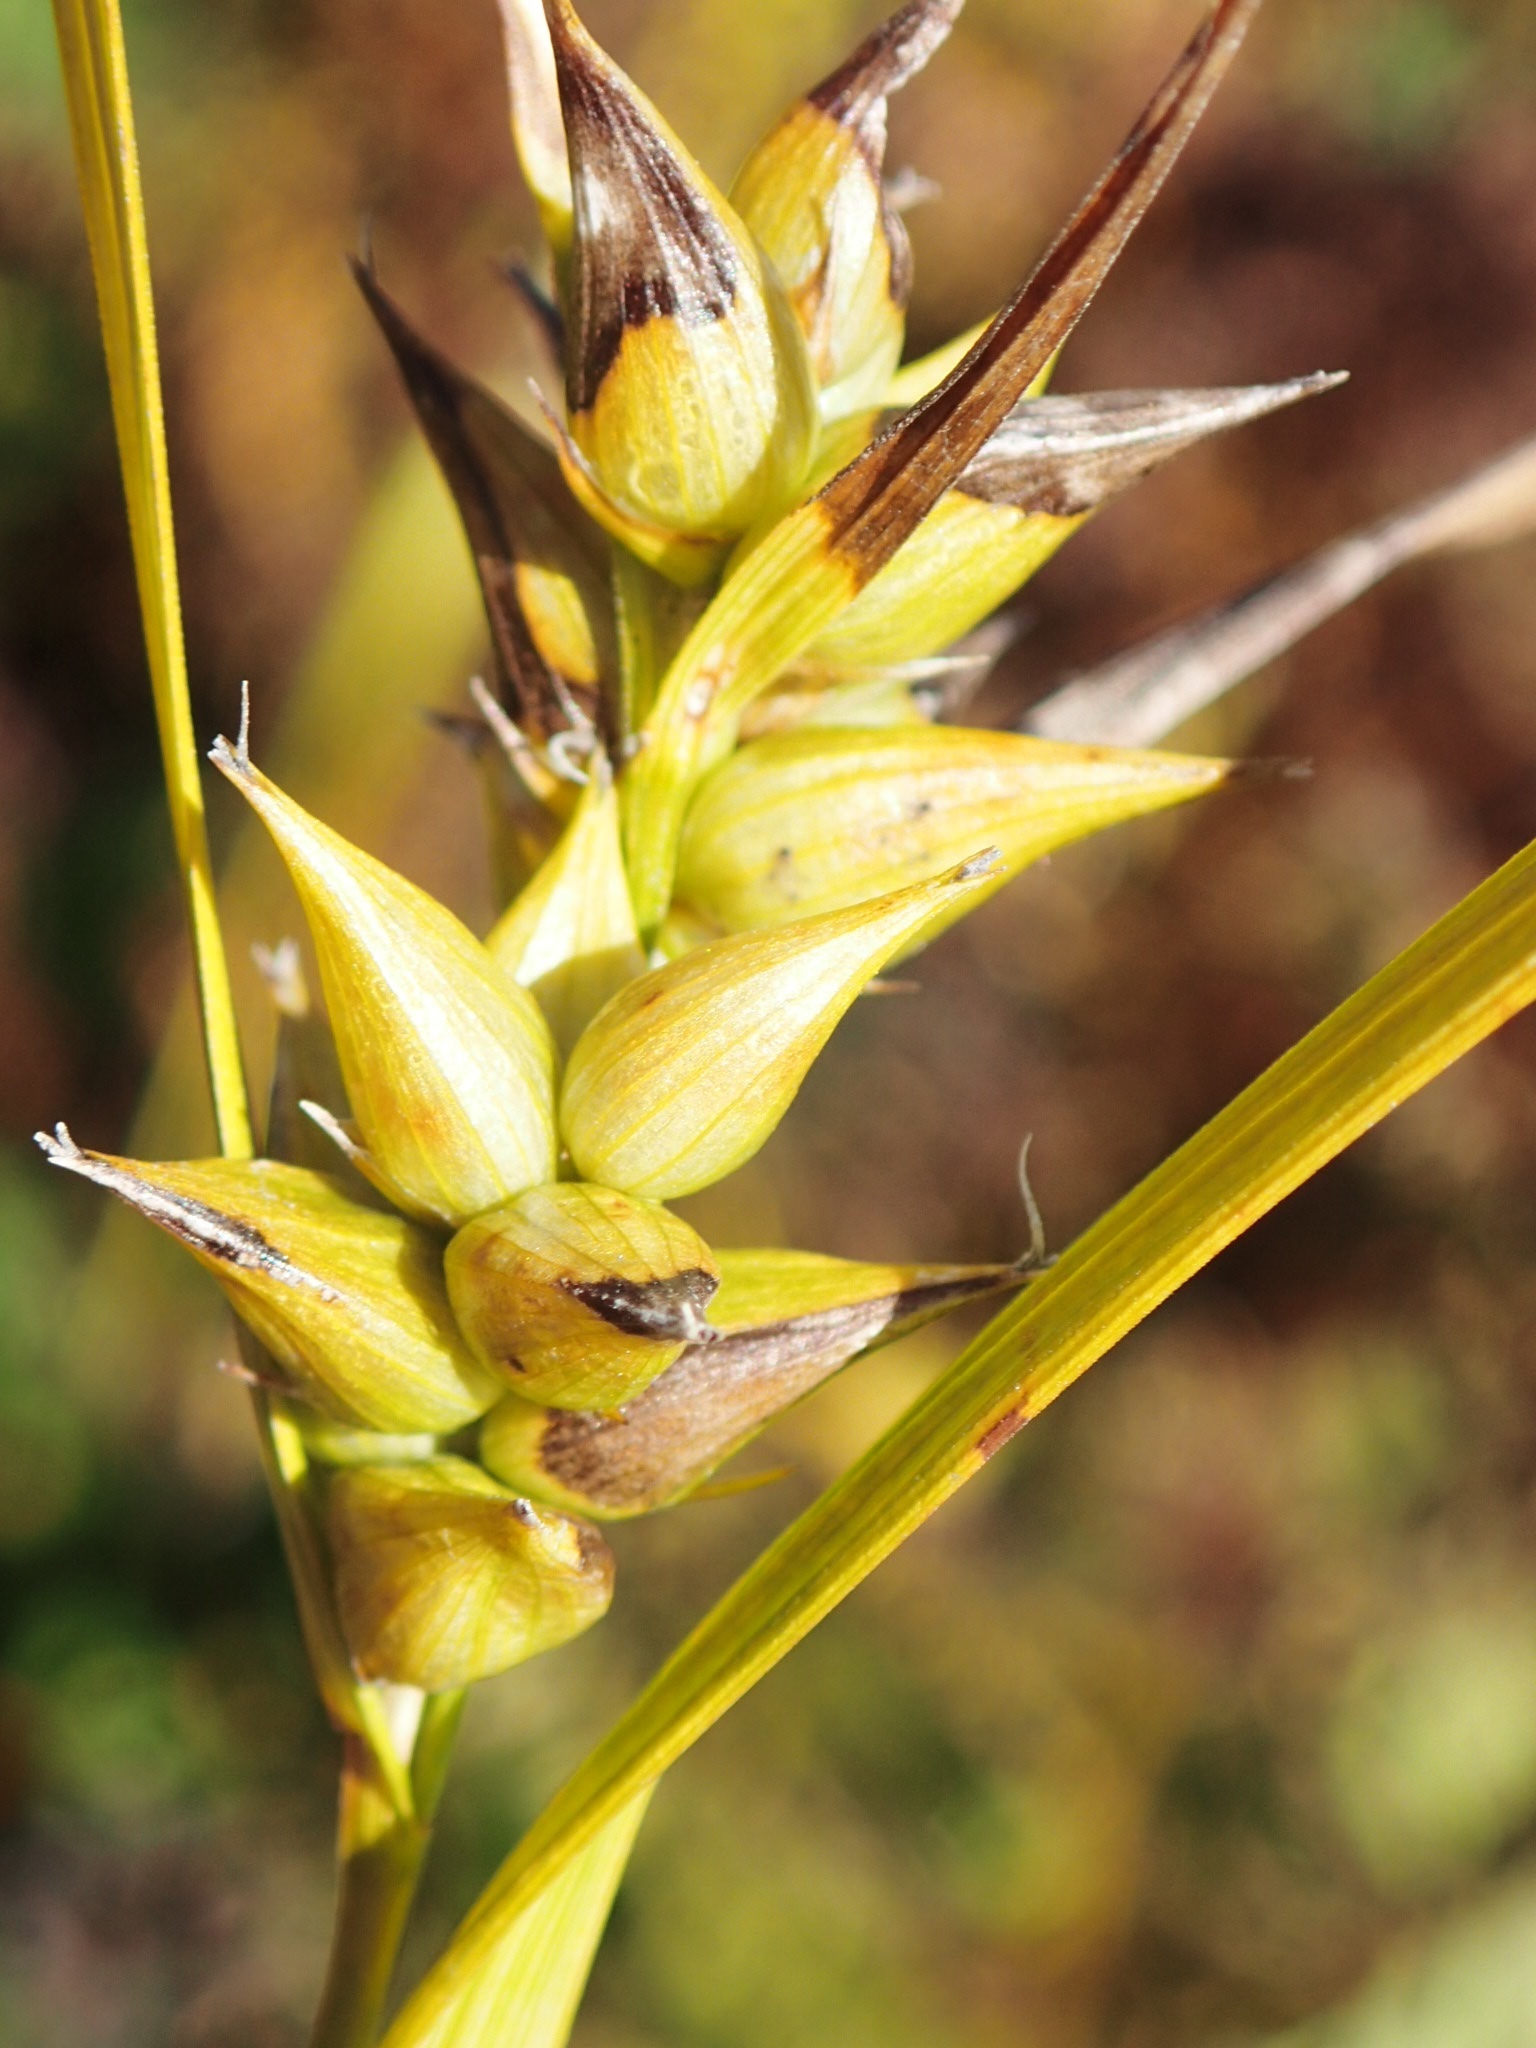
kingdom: Plantae
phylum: Tracheophyta
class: Liliopsida
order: Poales
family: Cyperaceae
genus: Carex
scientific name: Carex intumescens
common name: Greater bladder sedge
